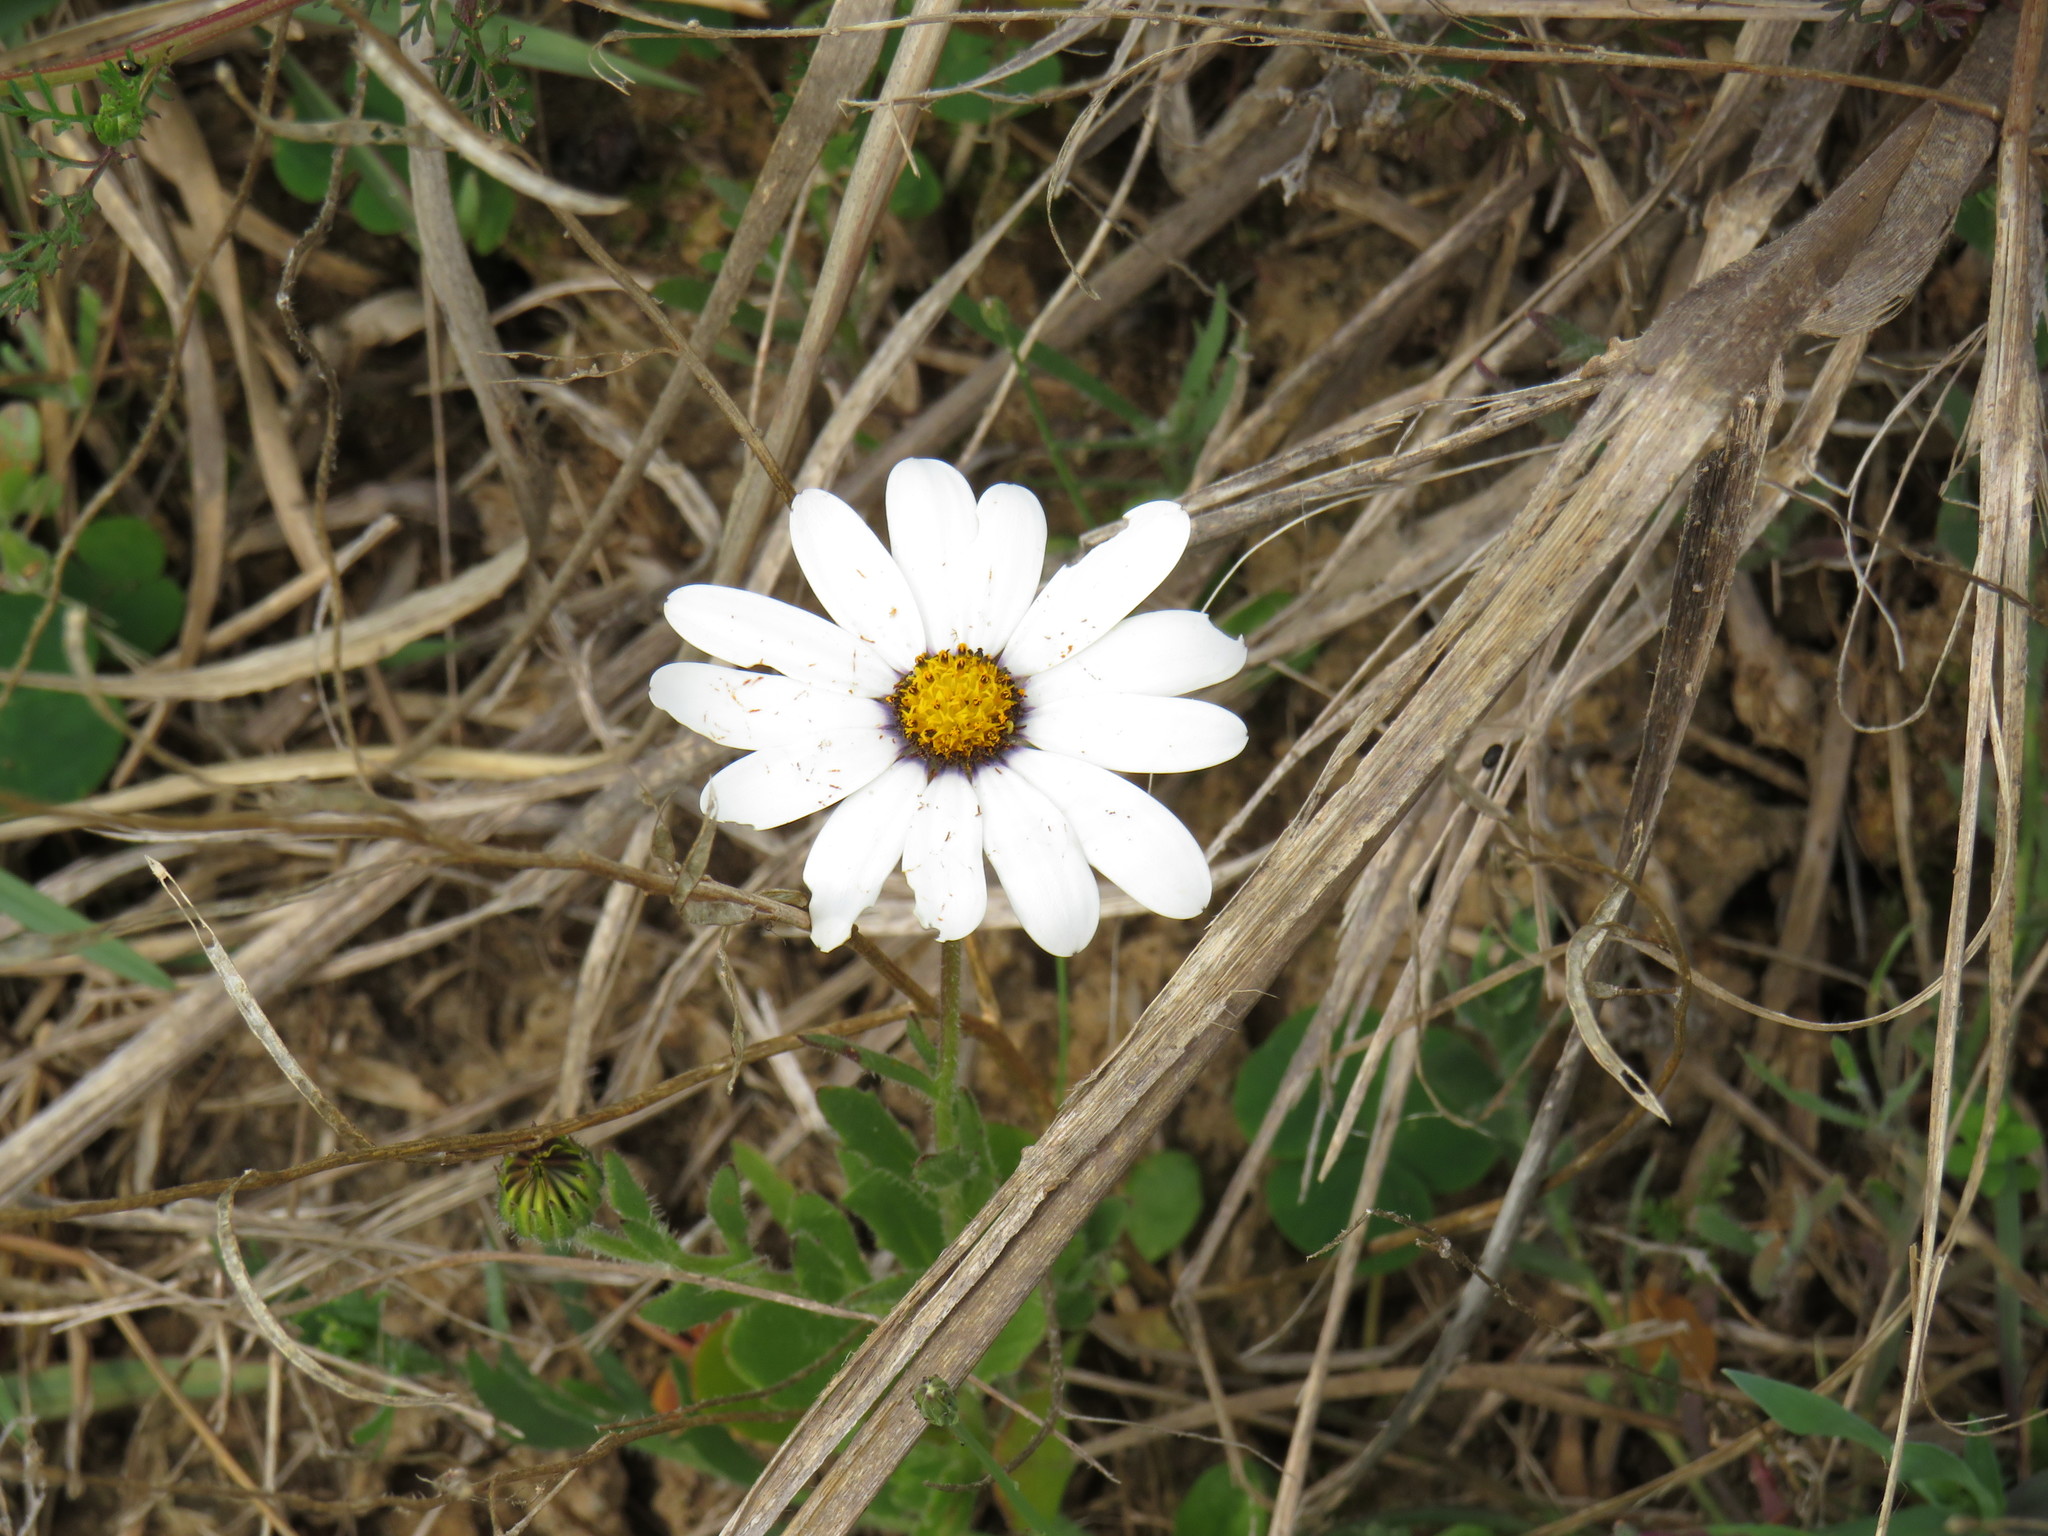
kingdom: Plantae
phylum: Tracheophyta
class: Magnoliopsida
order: Asterales
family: Asteraceae
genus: Dimorphotheca
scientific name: Dimorphotheca pluvialis
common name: Weather prophet
